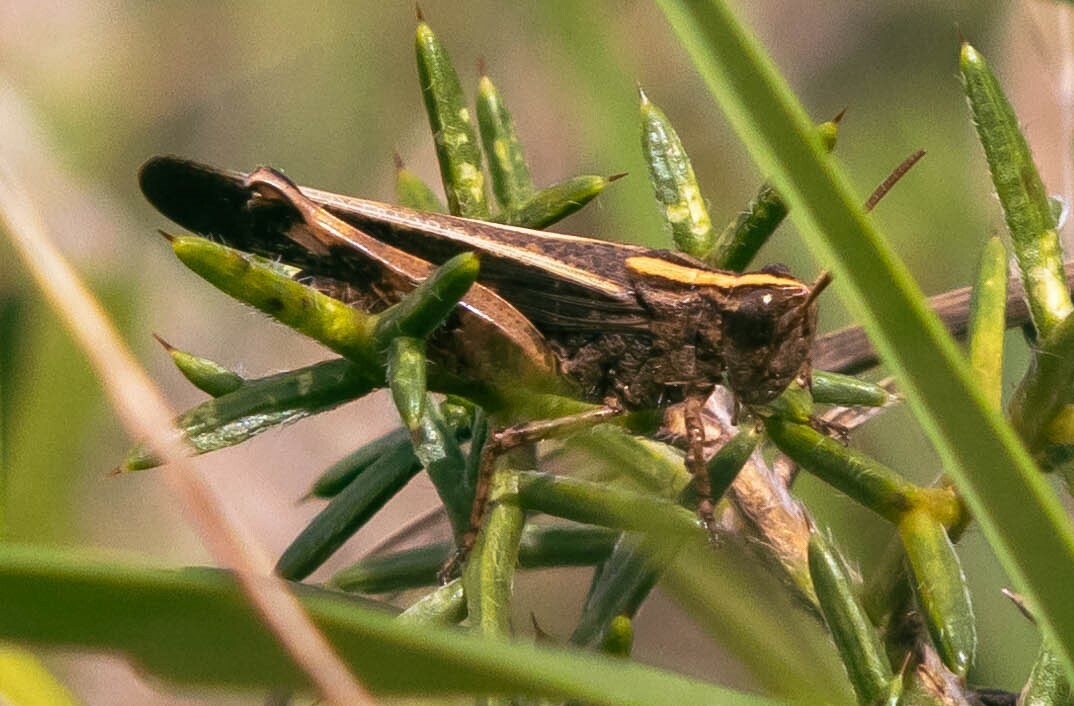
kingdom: Animalia
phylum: Arthropoda
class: Insecta
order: Orthoptera
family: Acrididae
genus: Aiolopus
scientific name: Aiolopus strepens
